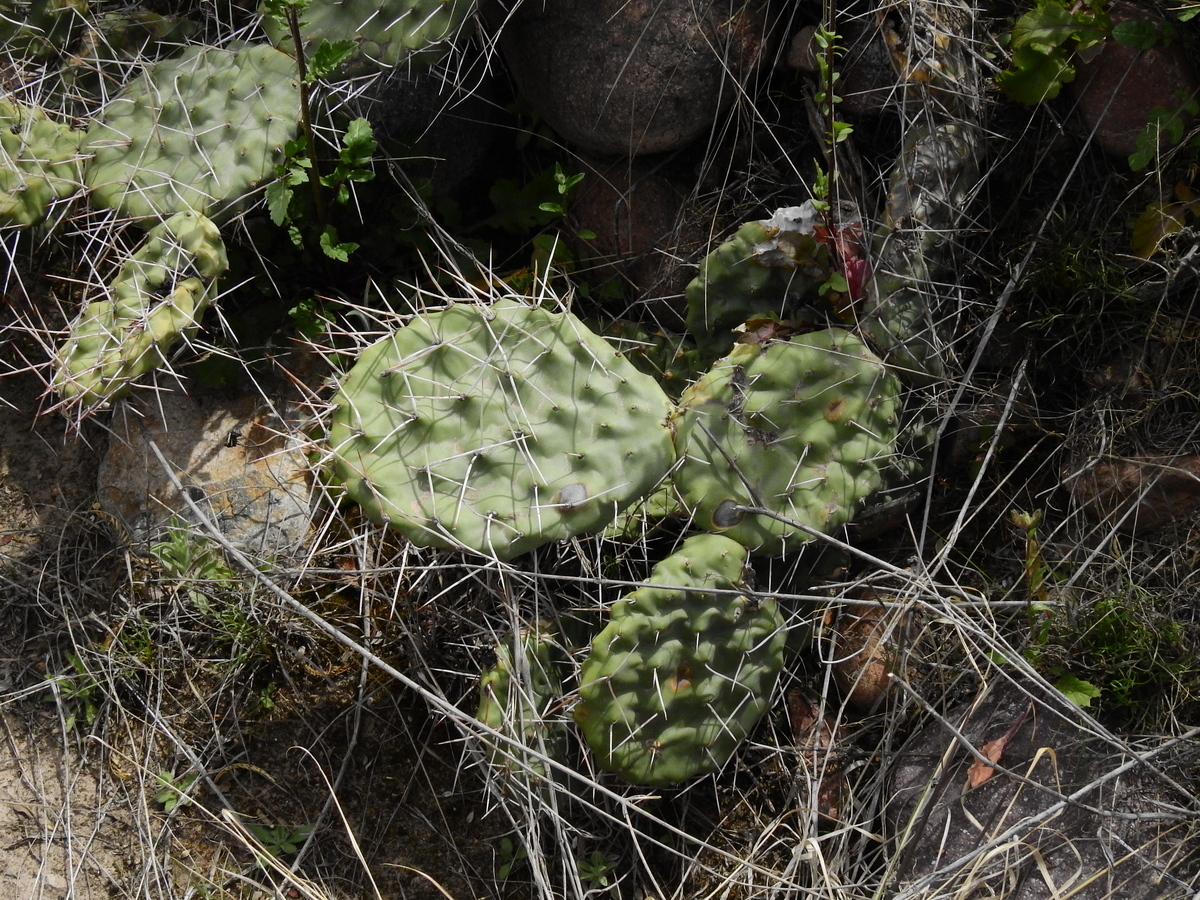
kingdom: Plantae
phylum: Tracheophyta
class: Magnoliopsida
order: Caryophyllales
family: Cactaceae
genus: Opuntia
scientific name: Opuntia sulphurea
